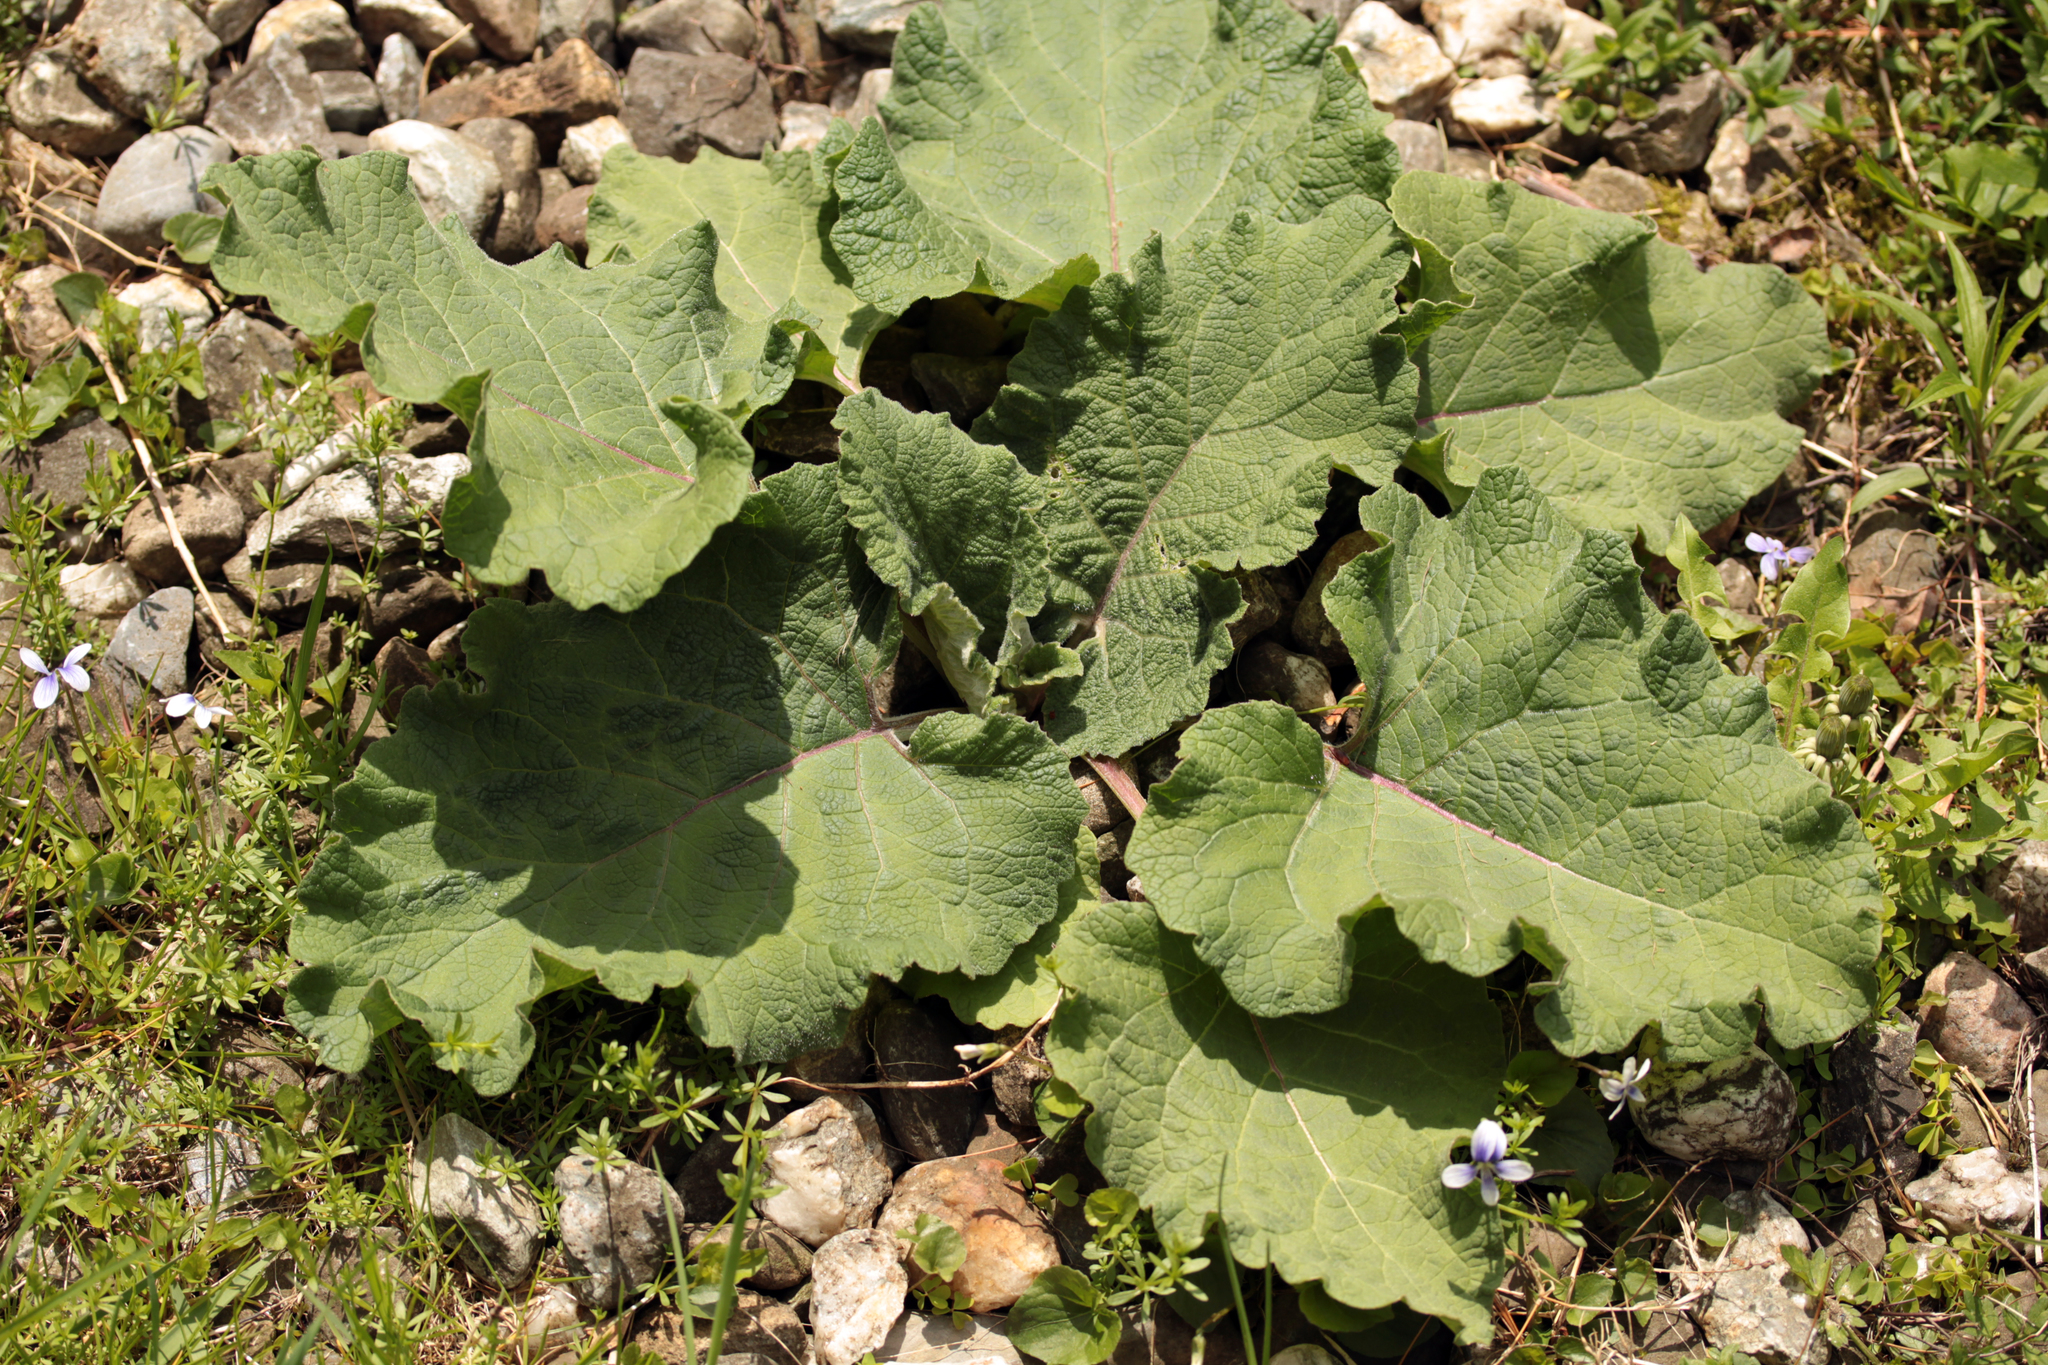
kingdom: Plantae
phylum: Tracheophyta
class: Magnoliopsida
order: Asterales
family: Asteraceae
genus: Arctium
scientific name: Arctium
